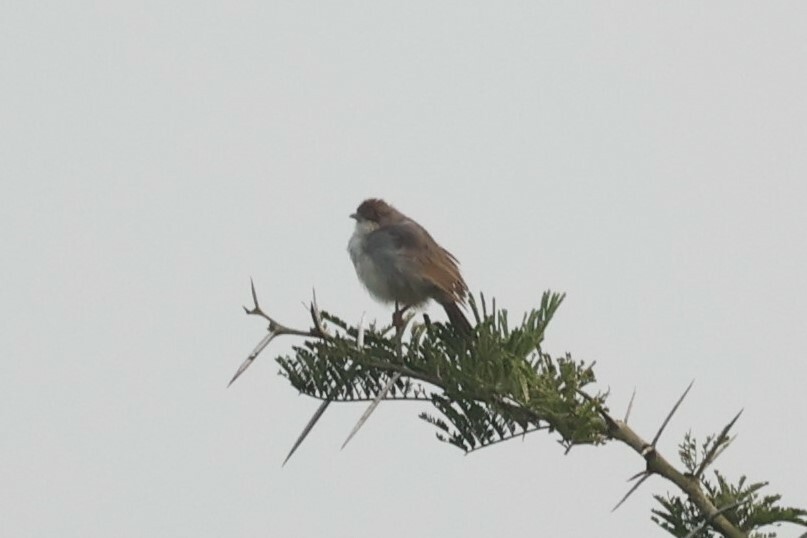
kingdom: Animalia
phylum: Chordata
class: Aves
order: Passeriformes
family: Cisticolidae
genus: Cisticola
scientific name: Cisticola cantans
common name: Singing cisticola
